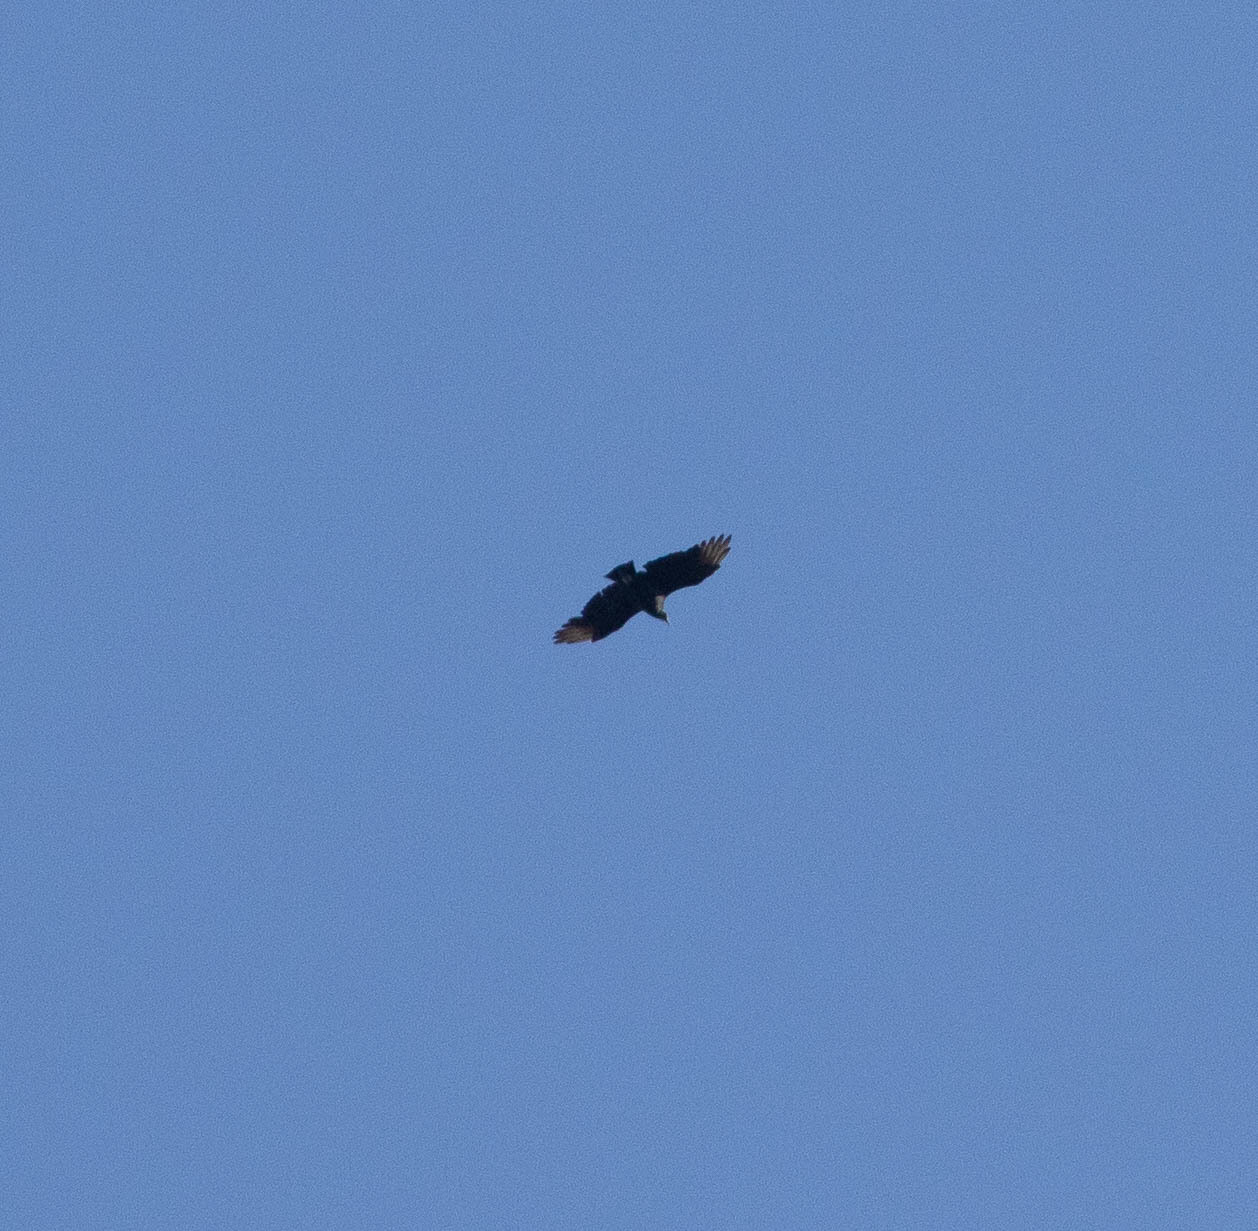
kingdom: Animalia
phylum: Chordata
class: Aves
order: Accipitriformes
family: Cathartidae
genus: Coragyps
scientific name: Coragyps atratus
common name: Black vulture
